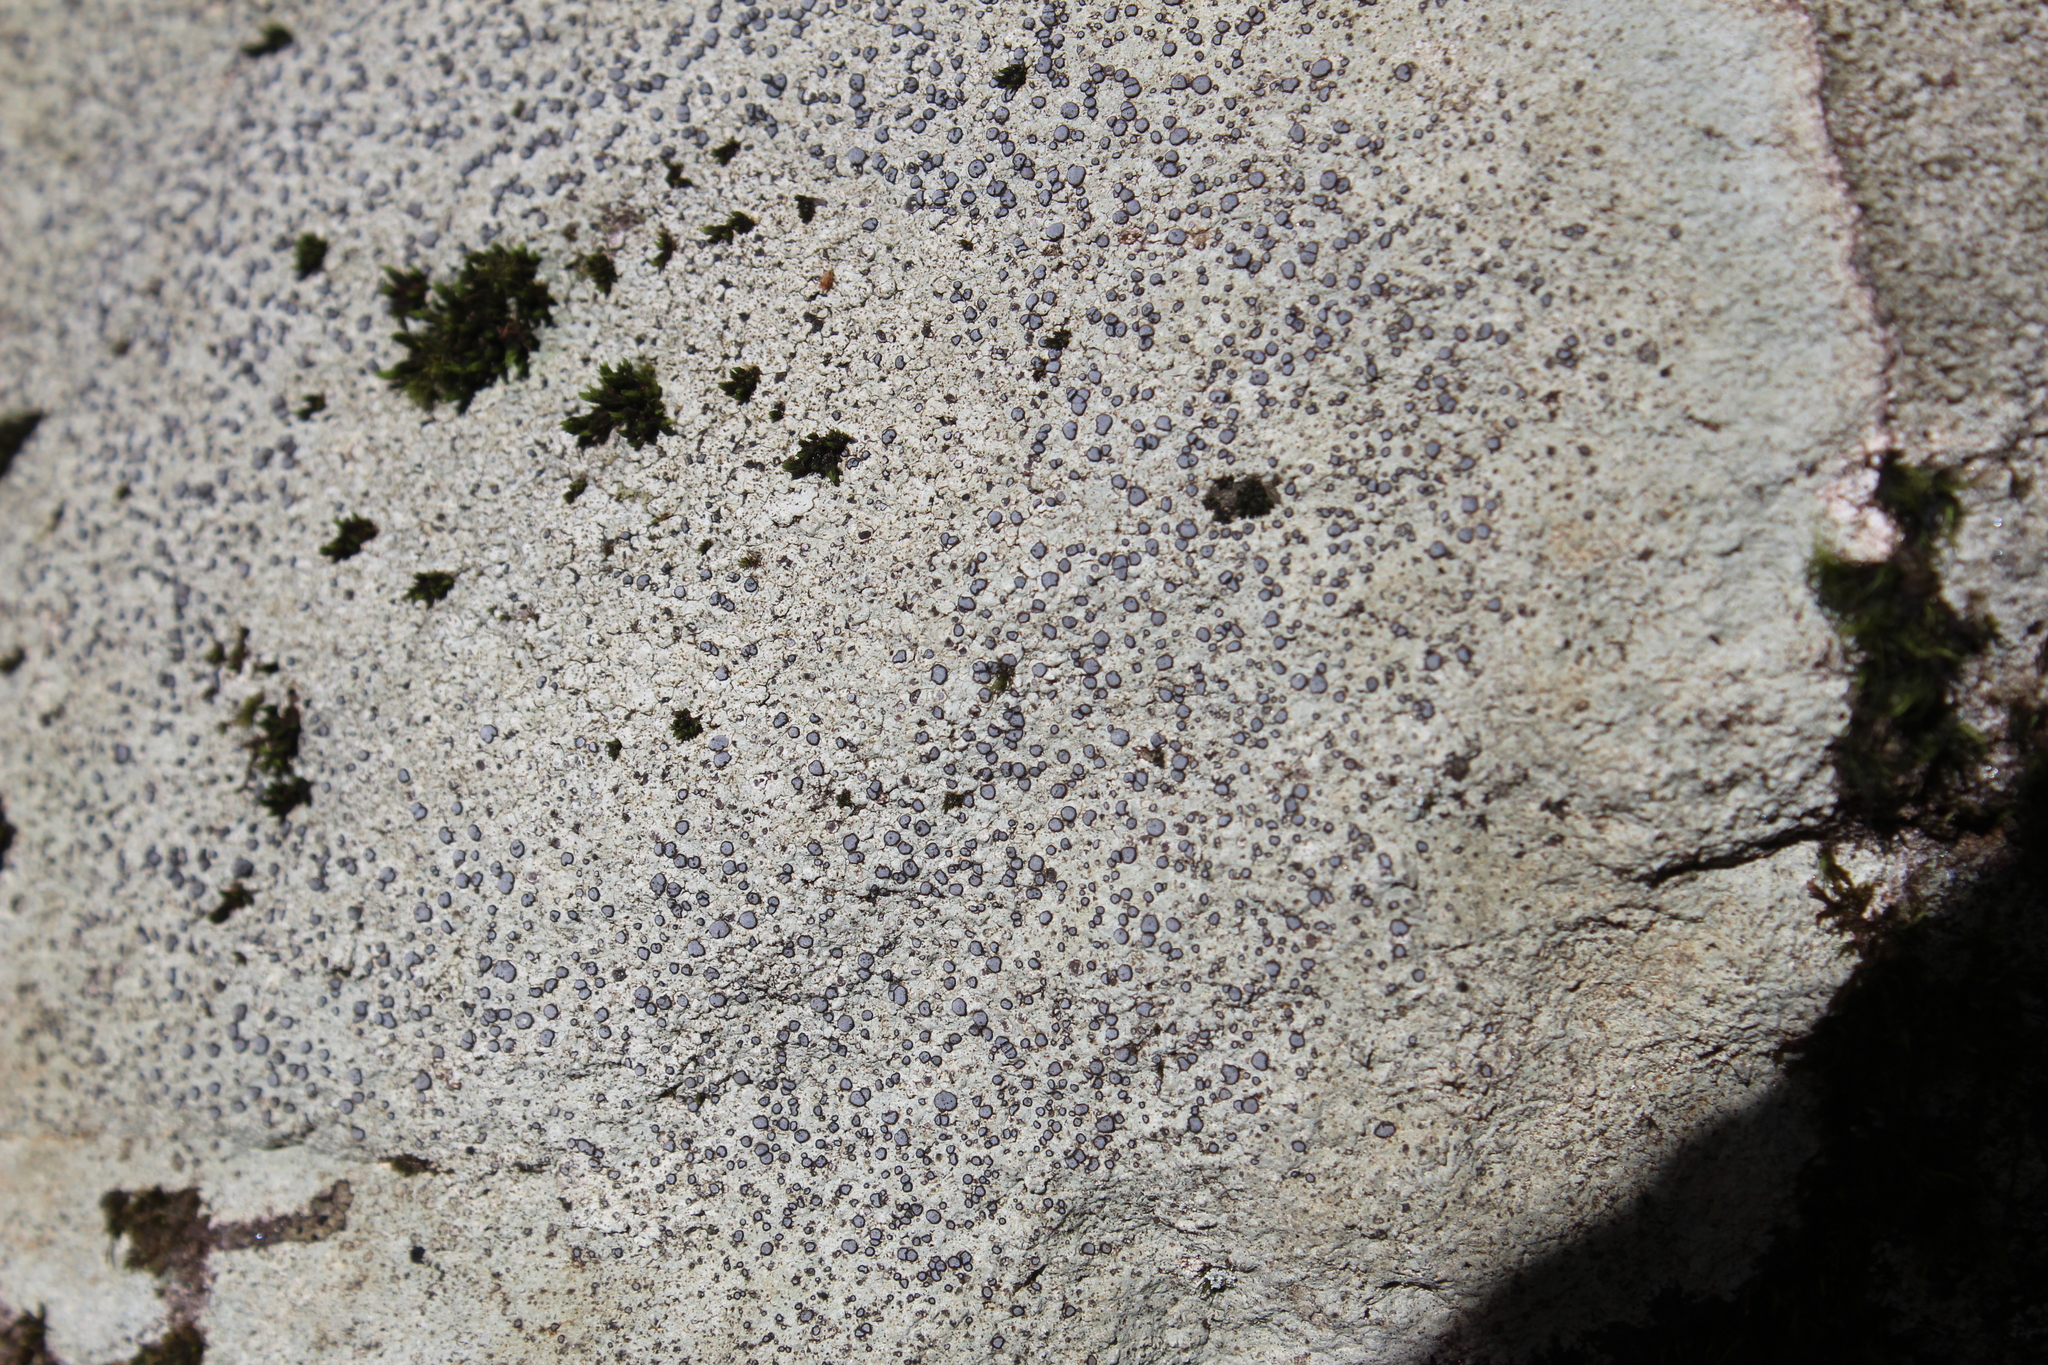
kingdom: Fungi
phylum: Ascomycota
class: Lecanoromycetes
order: Lecideales
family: Lecideaceae
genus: Porpidia
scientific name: Porpidia albocaerulescens
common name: Smokey-eyed boulder lichen
